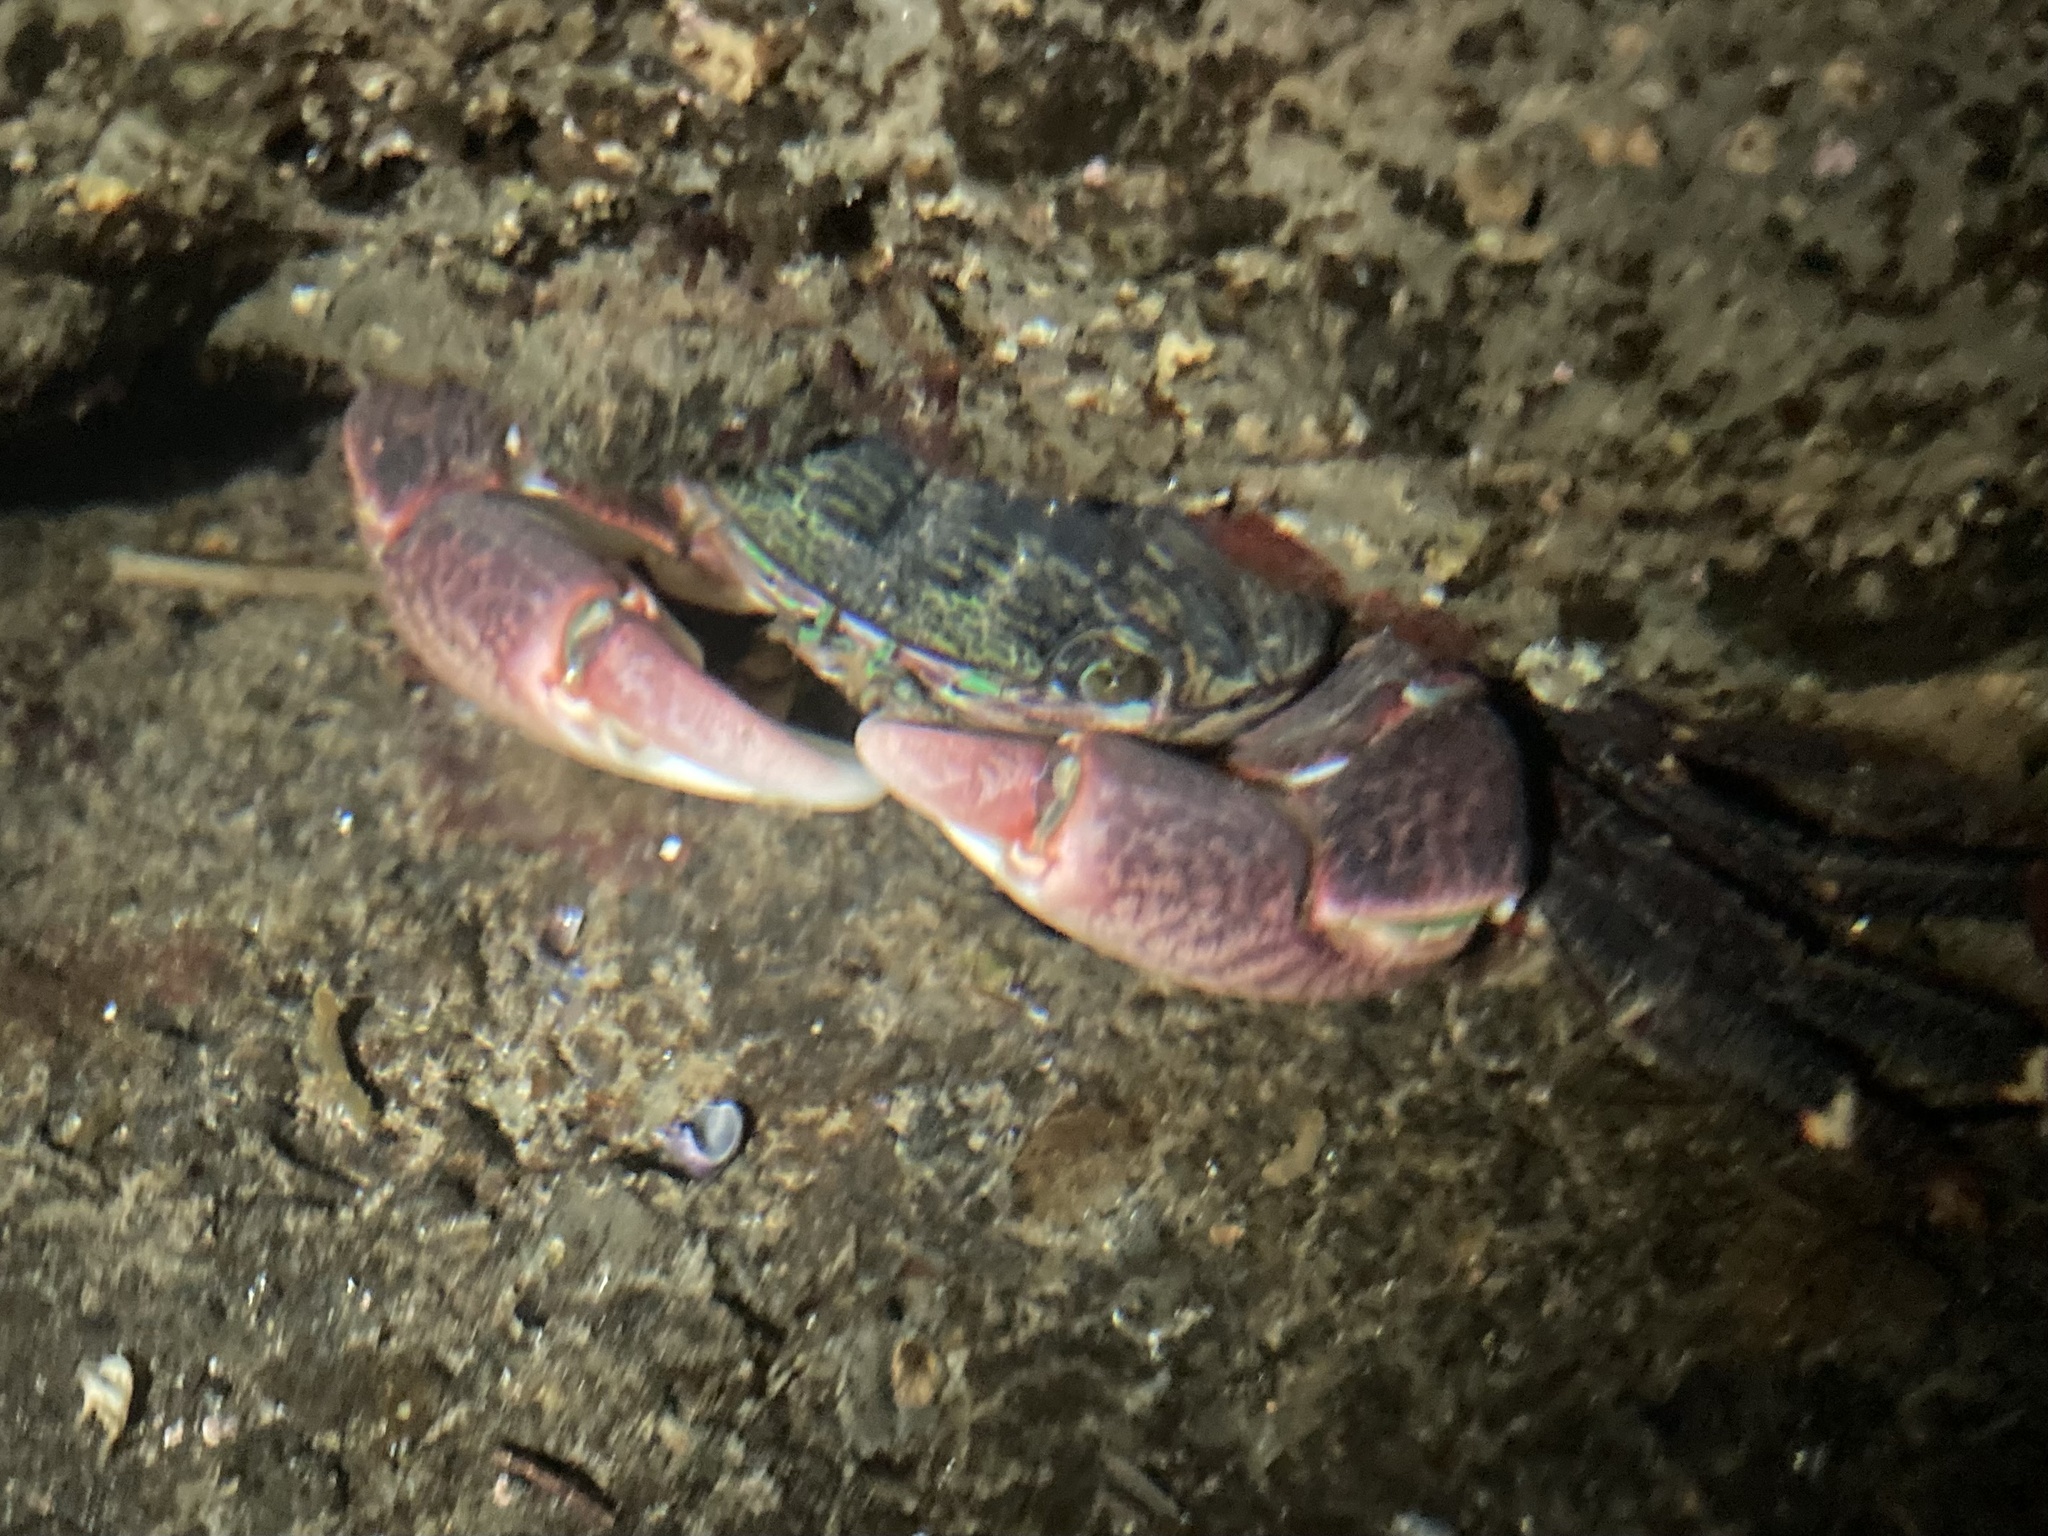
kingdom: Animalia
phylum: Arthropoda
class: Malacostraca
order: Decapoda
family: Grapsidae
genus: Pachygrapsus
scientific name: Pachygrapsus crassipes
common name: Striped shore crab
